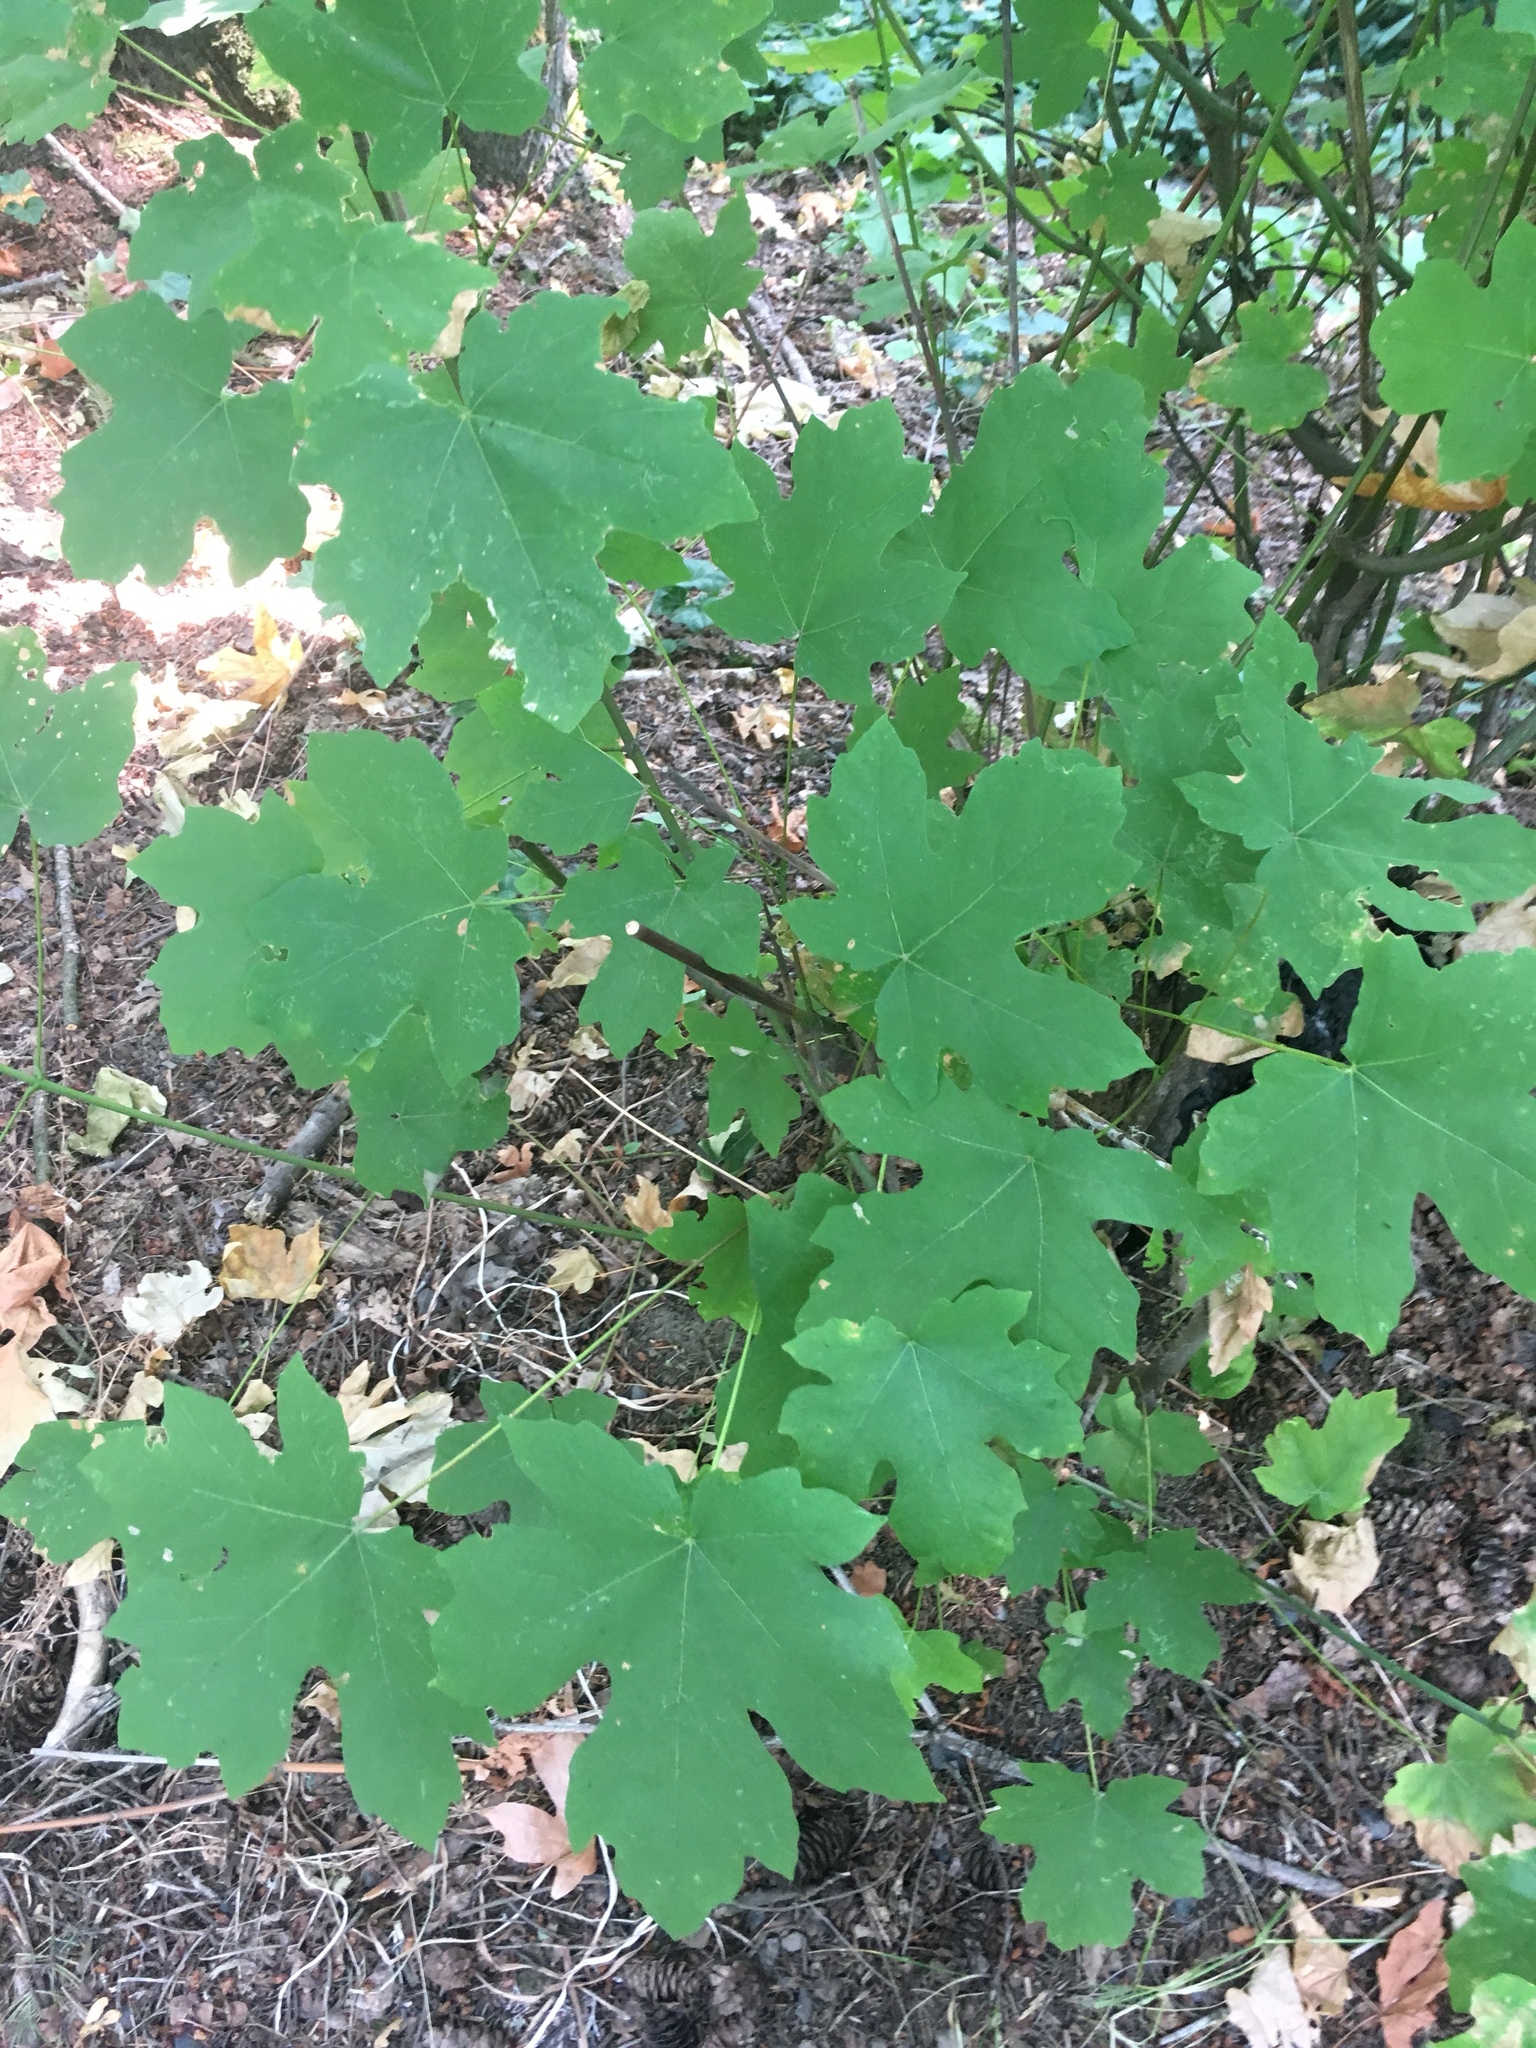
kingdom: Plantae
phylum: Tracheophyta
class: Magnoliopsida
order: Sapindales
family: Sapindaceae
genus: Acer
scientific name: Acer macrophyllum
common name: Oregon maple
